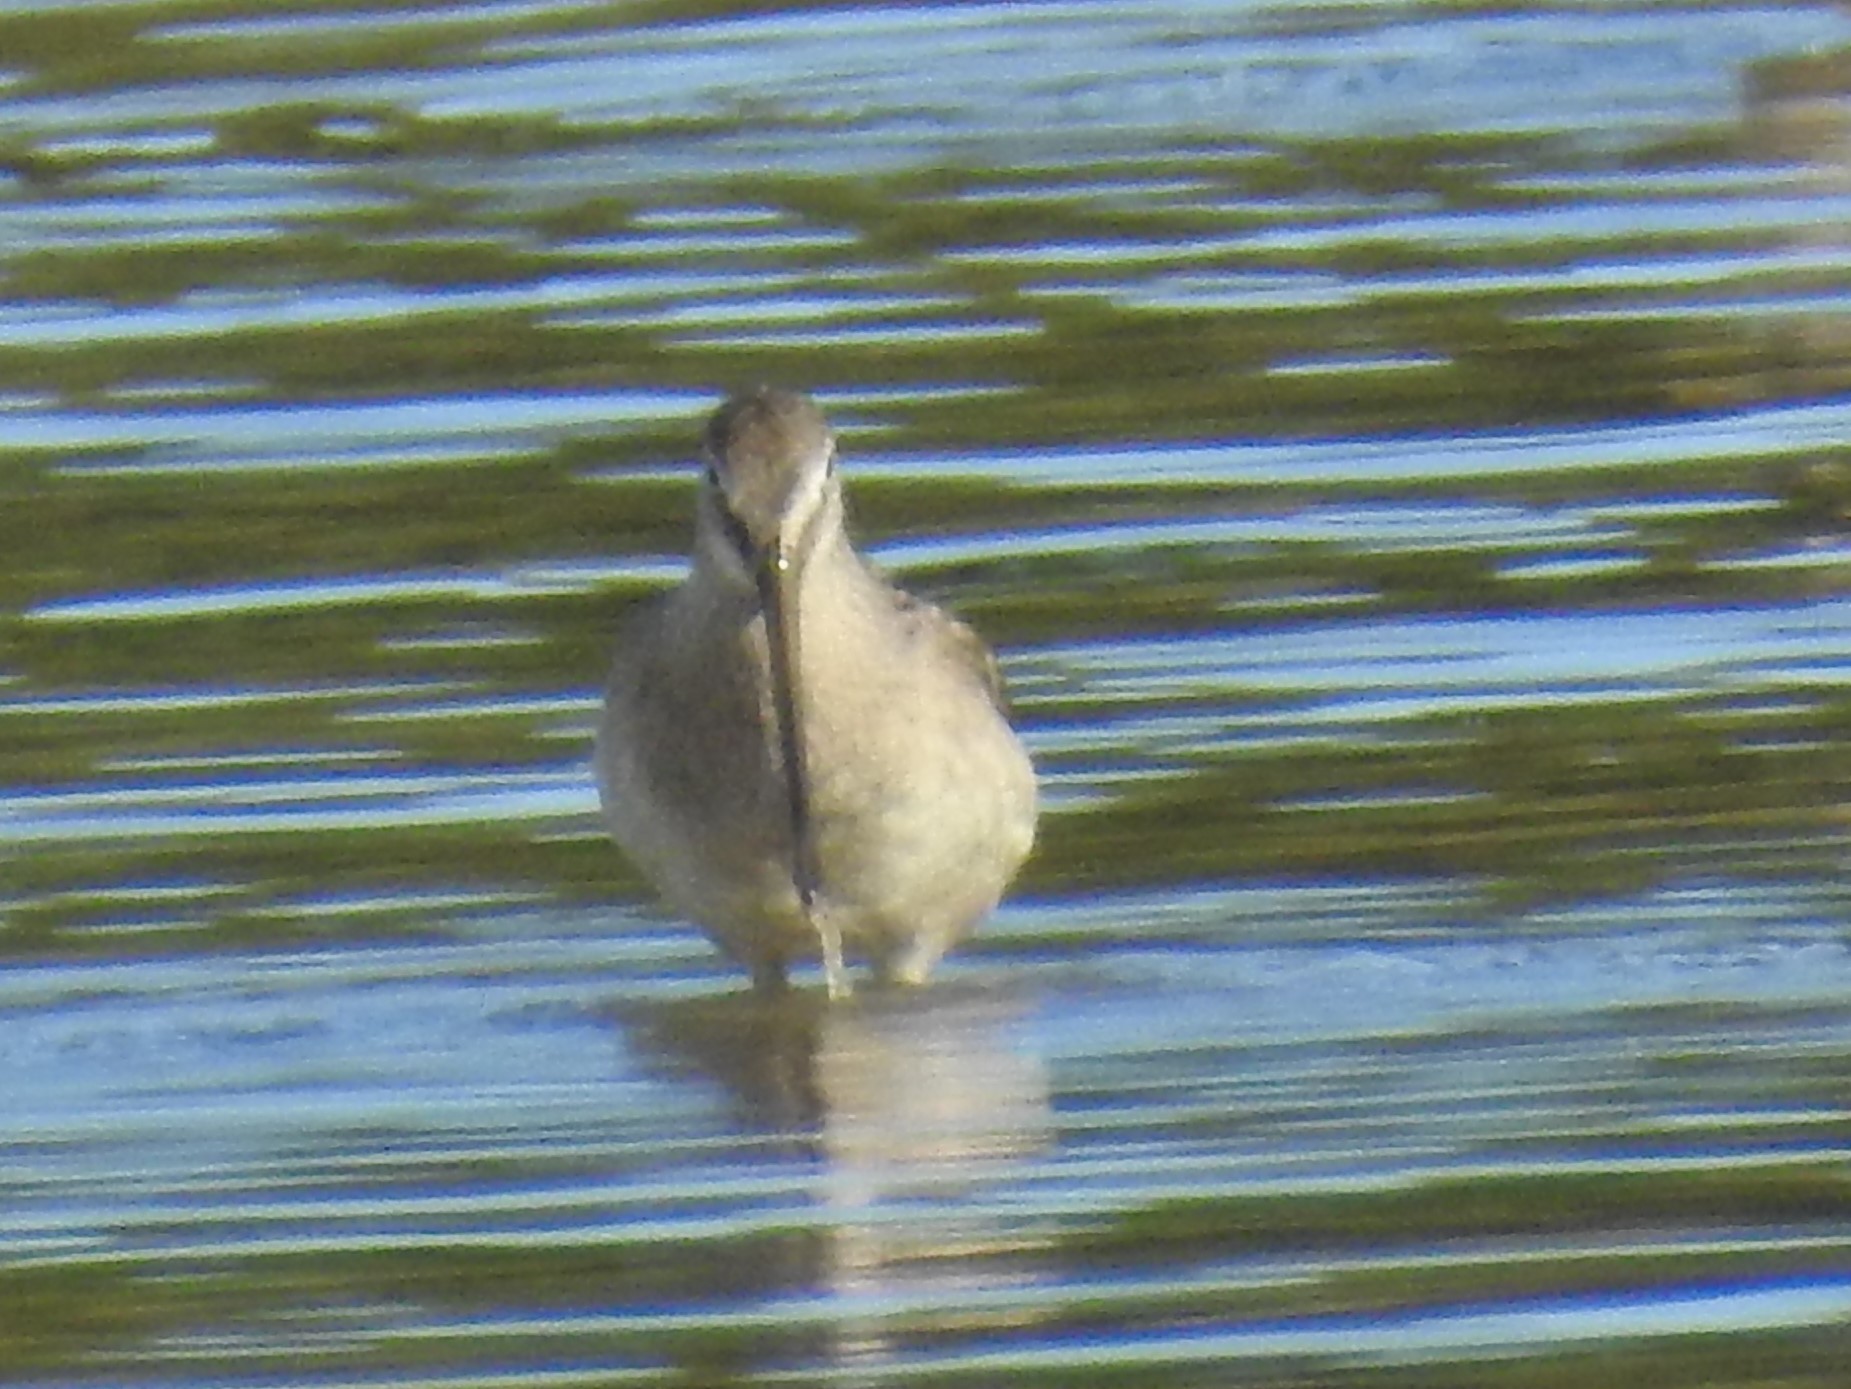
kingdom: Animalia
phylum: Chordata
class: Aves
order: Charadriiformes
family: Scolopacidae
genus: Limnodromus
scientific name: Limnodromus scolopaceus
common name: Long-billed dowitcher
